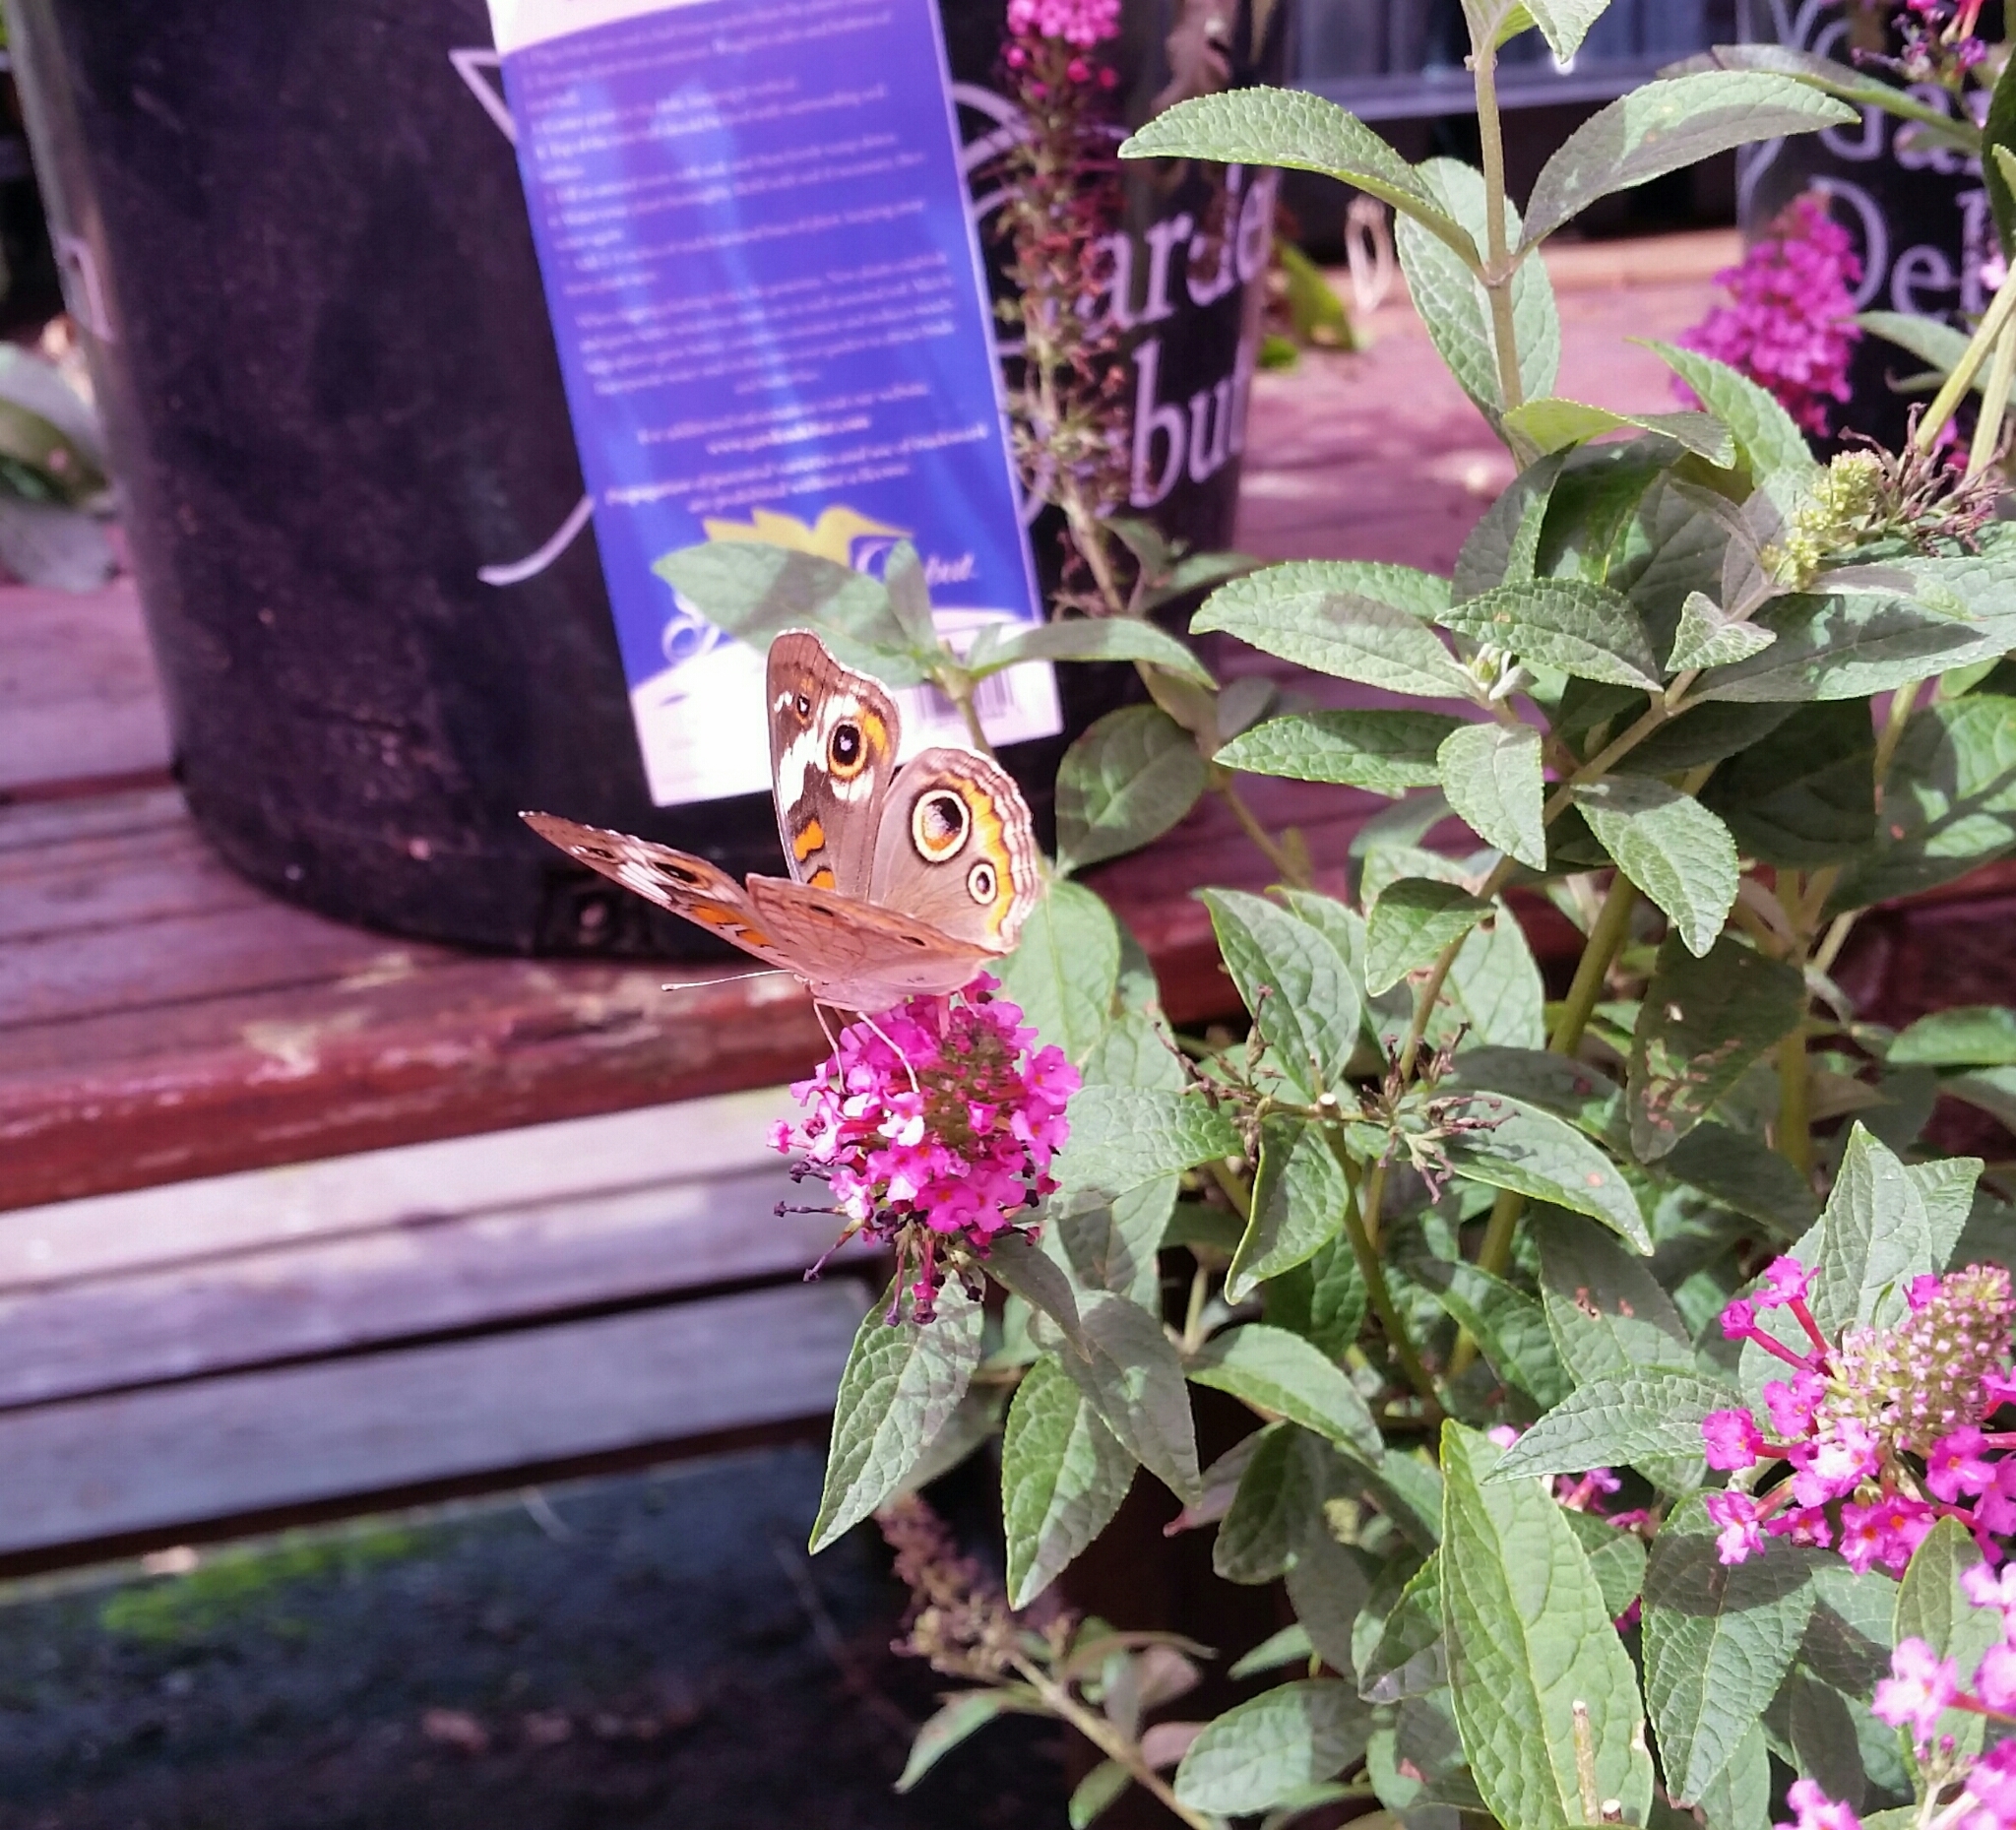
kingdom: Animalia
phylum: Arthropoda
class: Insecta
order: Lepidoptera
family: Nymphalidae
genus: Junonia
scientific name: Junonia coenia
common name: Common buckeye
